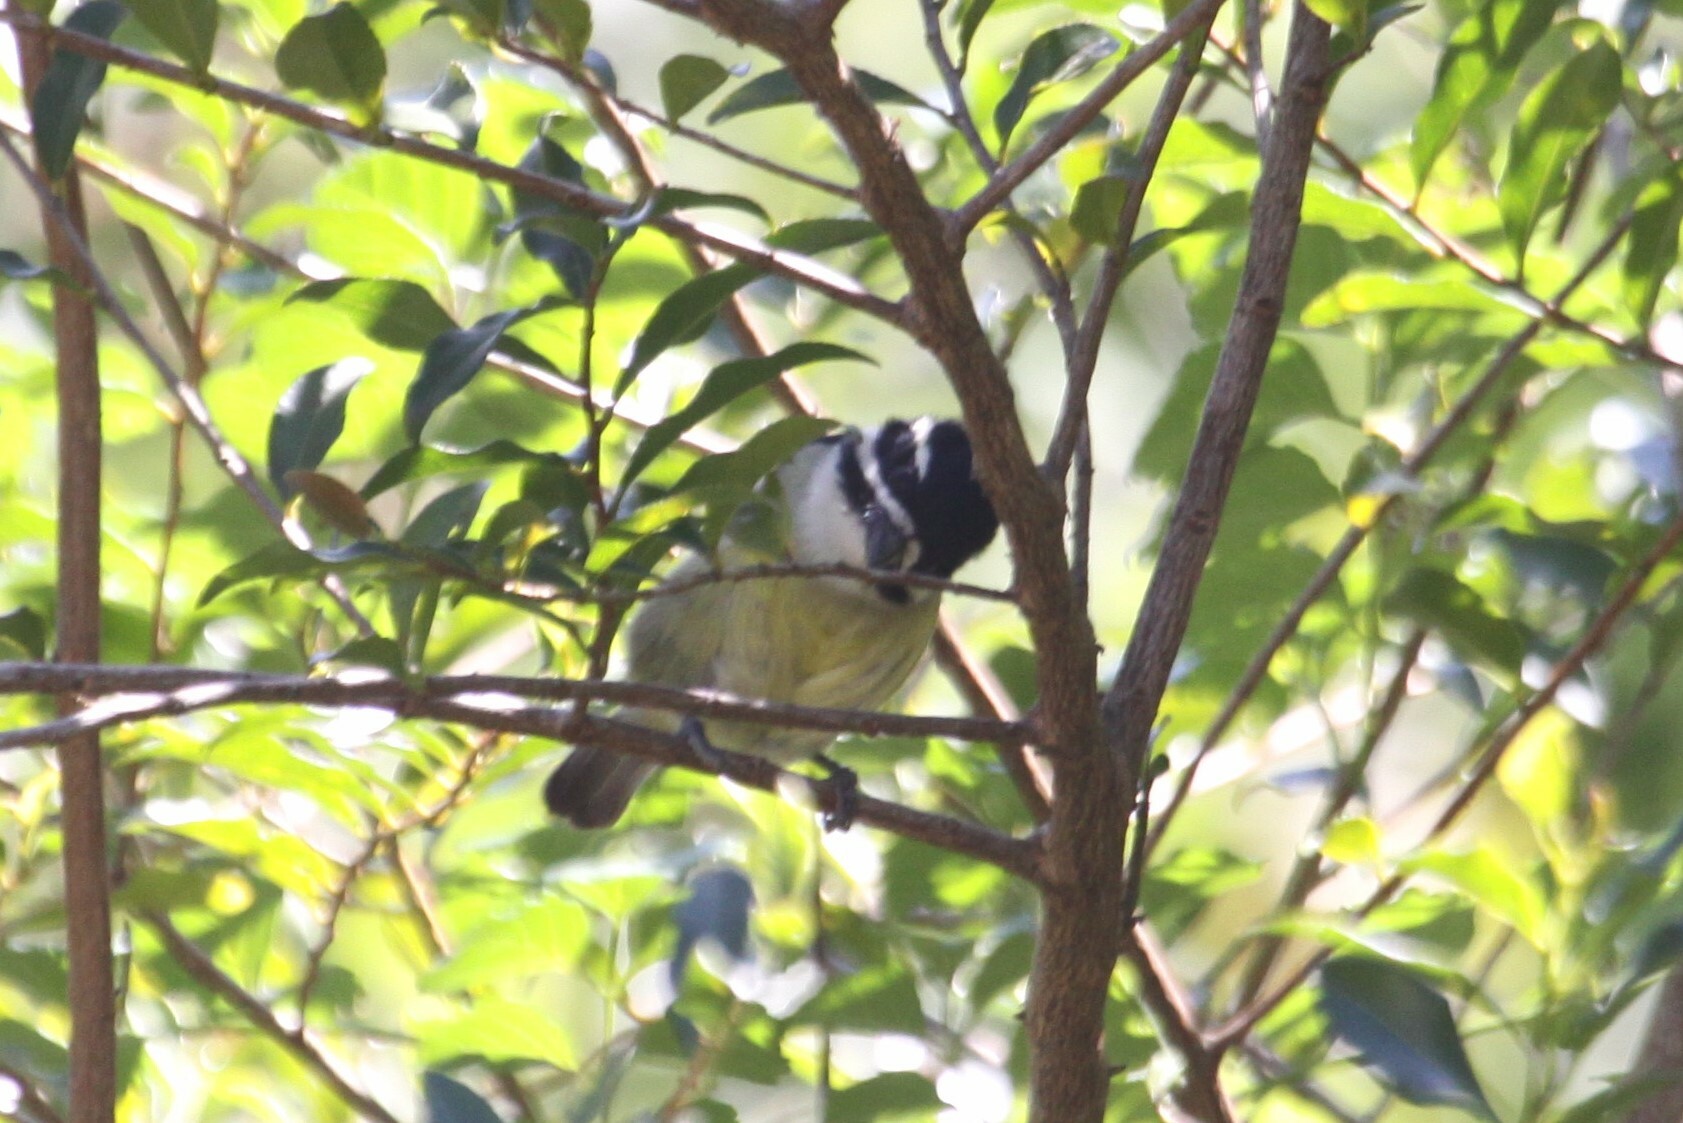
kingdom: Animalia
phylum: Chordata
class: Aves
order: Piciformes
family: Lybiidae
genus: Pogoniulus
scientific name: Pogoniulus bilineatus
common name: Yellow-rumped tinkerbird
